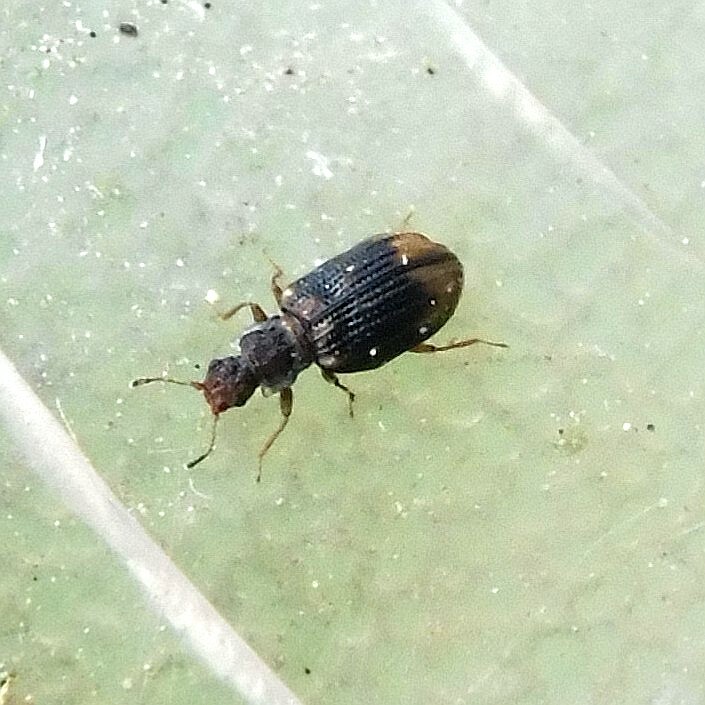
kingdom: Animalia
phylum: Arthropoda
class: Insecta
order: Coleoptera
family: Latridiidae
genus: Cartodere
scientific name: Cartodere bifasciata
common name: Plaster beetle
